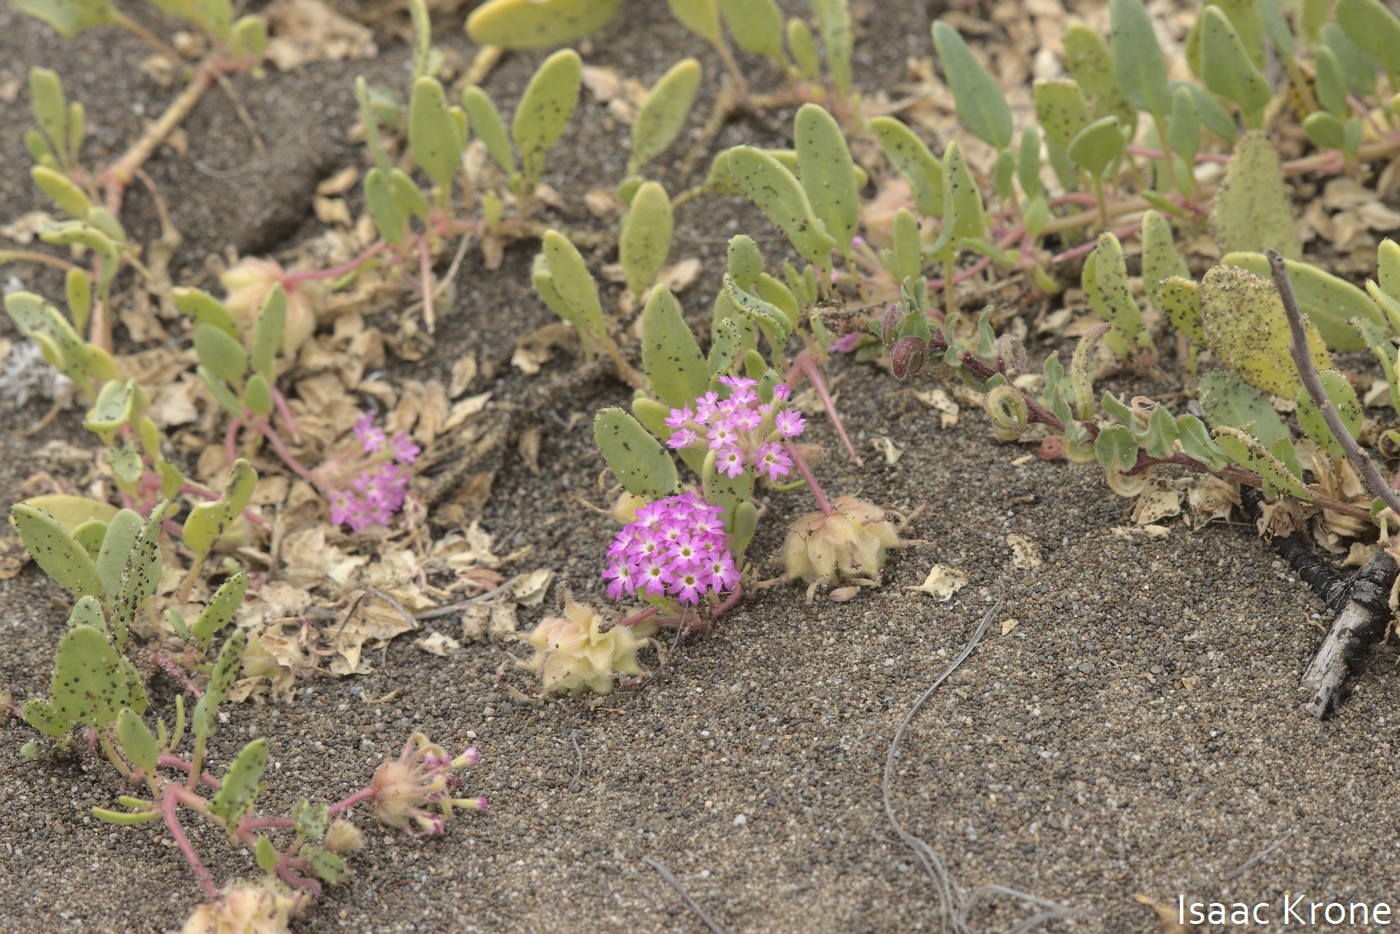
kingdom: Plantae
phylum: Tracheophyta
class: Magnoliopsida
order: Caryophyllales
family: Nyctaginaceae
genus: Abronia
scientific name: Abronia umbellata
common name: Sand-verbena
